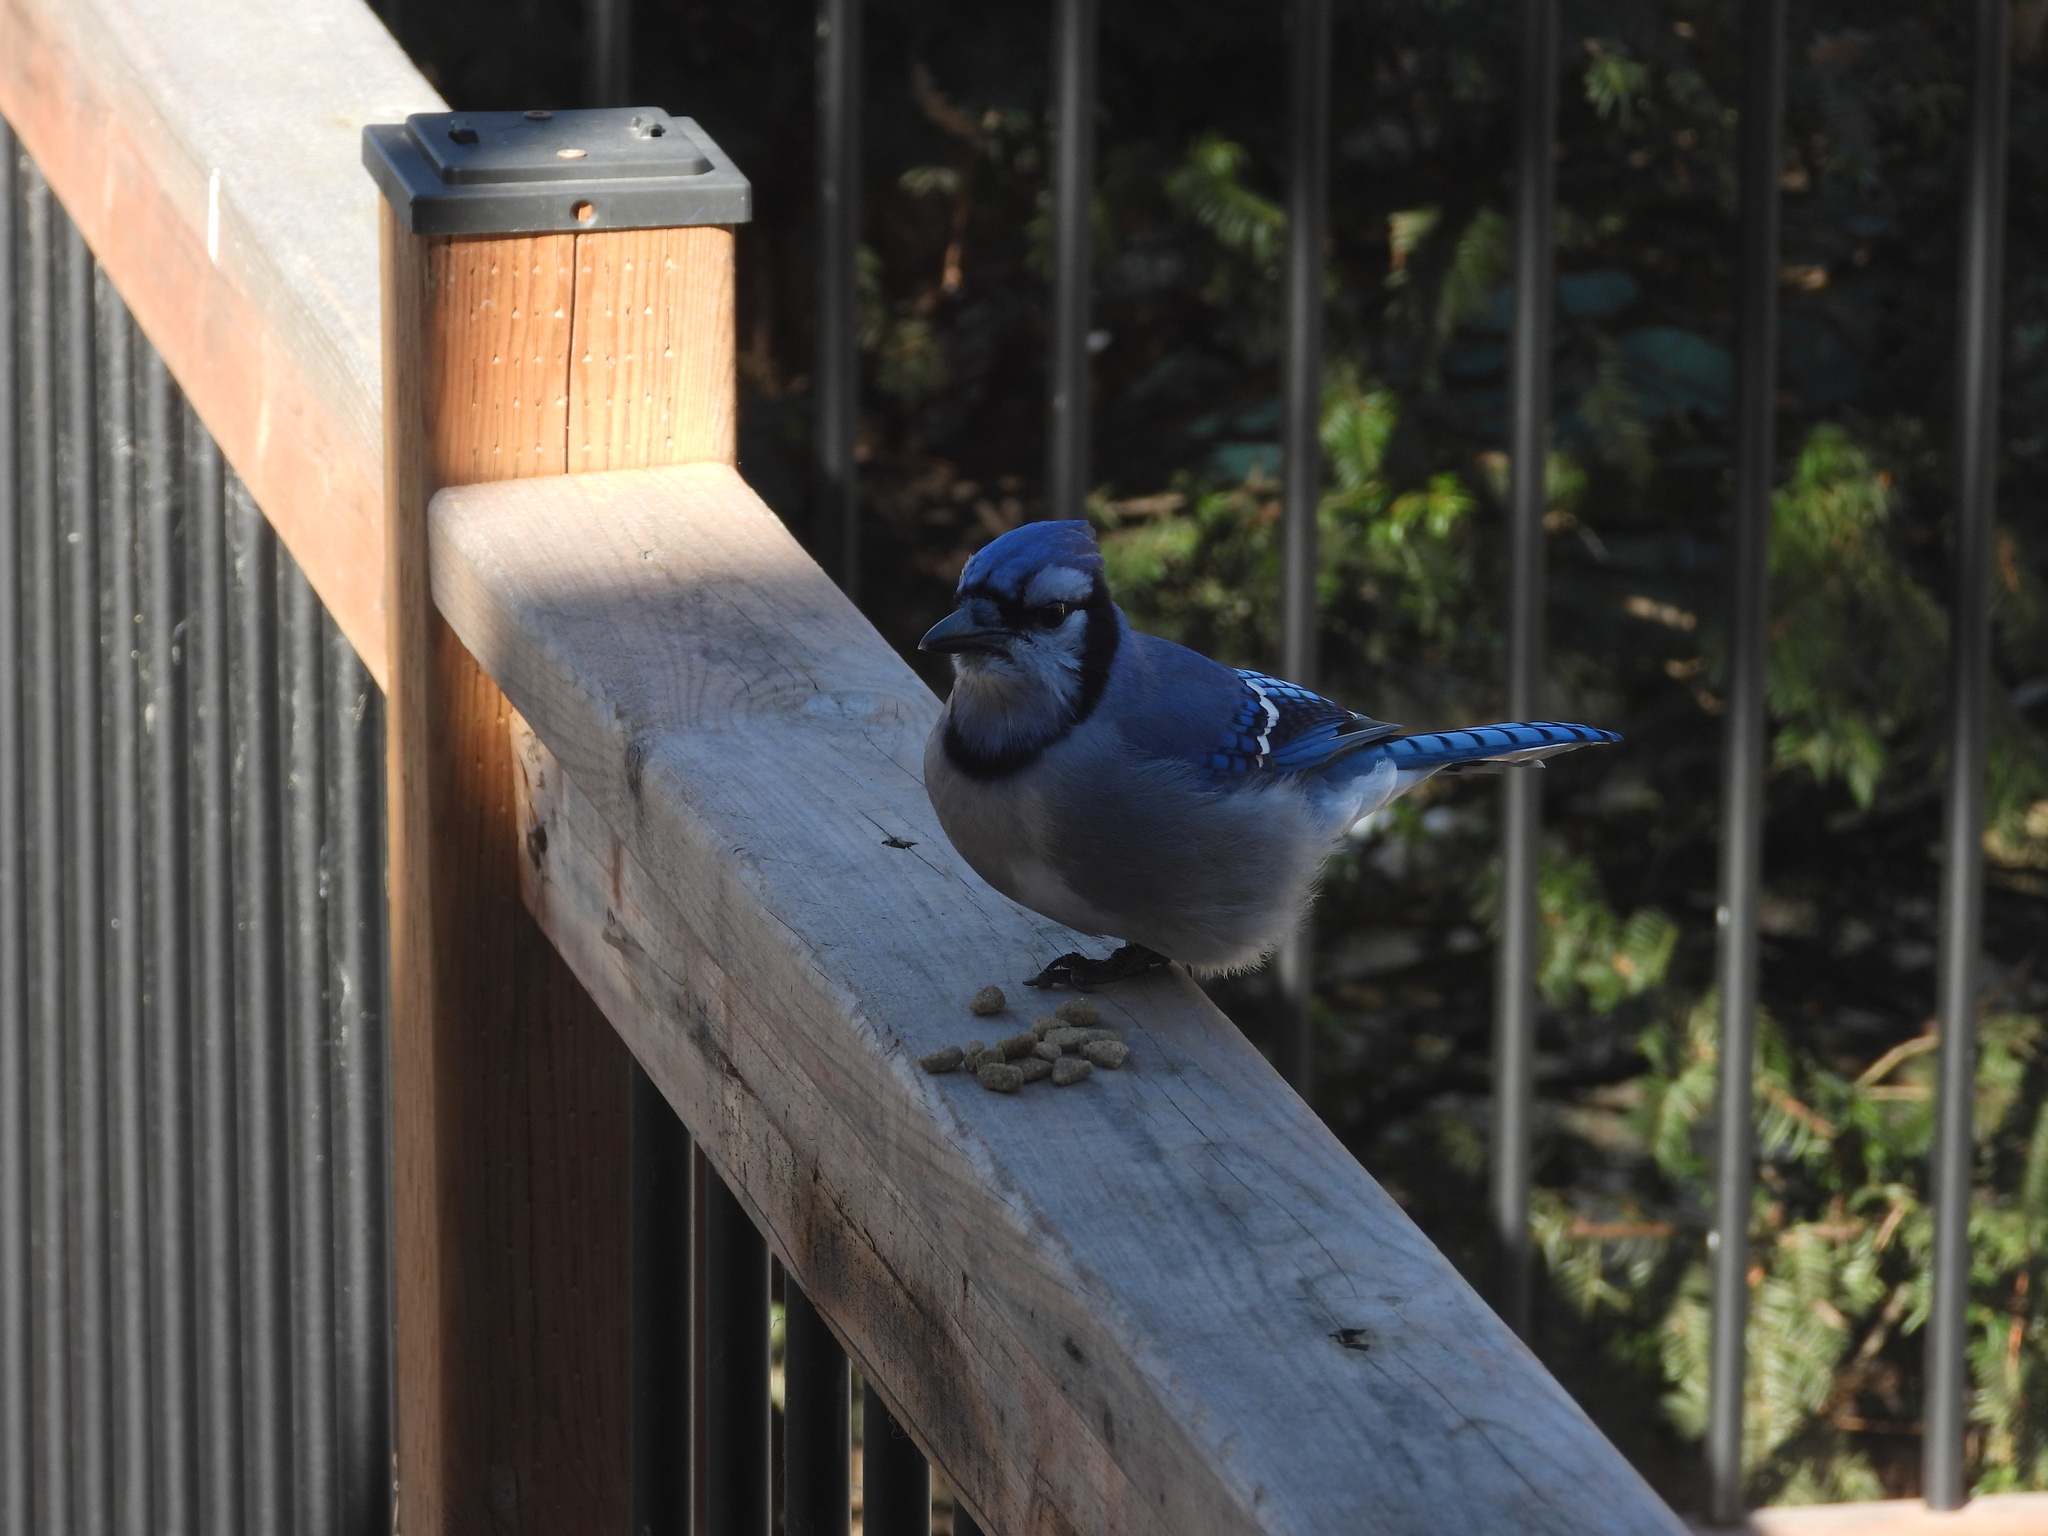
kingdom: Animalia
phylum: Chordata
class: Aves
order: Passeriformes
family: Corvidae
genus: Cyanocitta
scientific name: Cyanocitta cristata
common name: Blue jay
